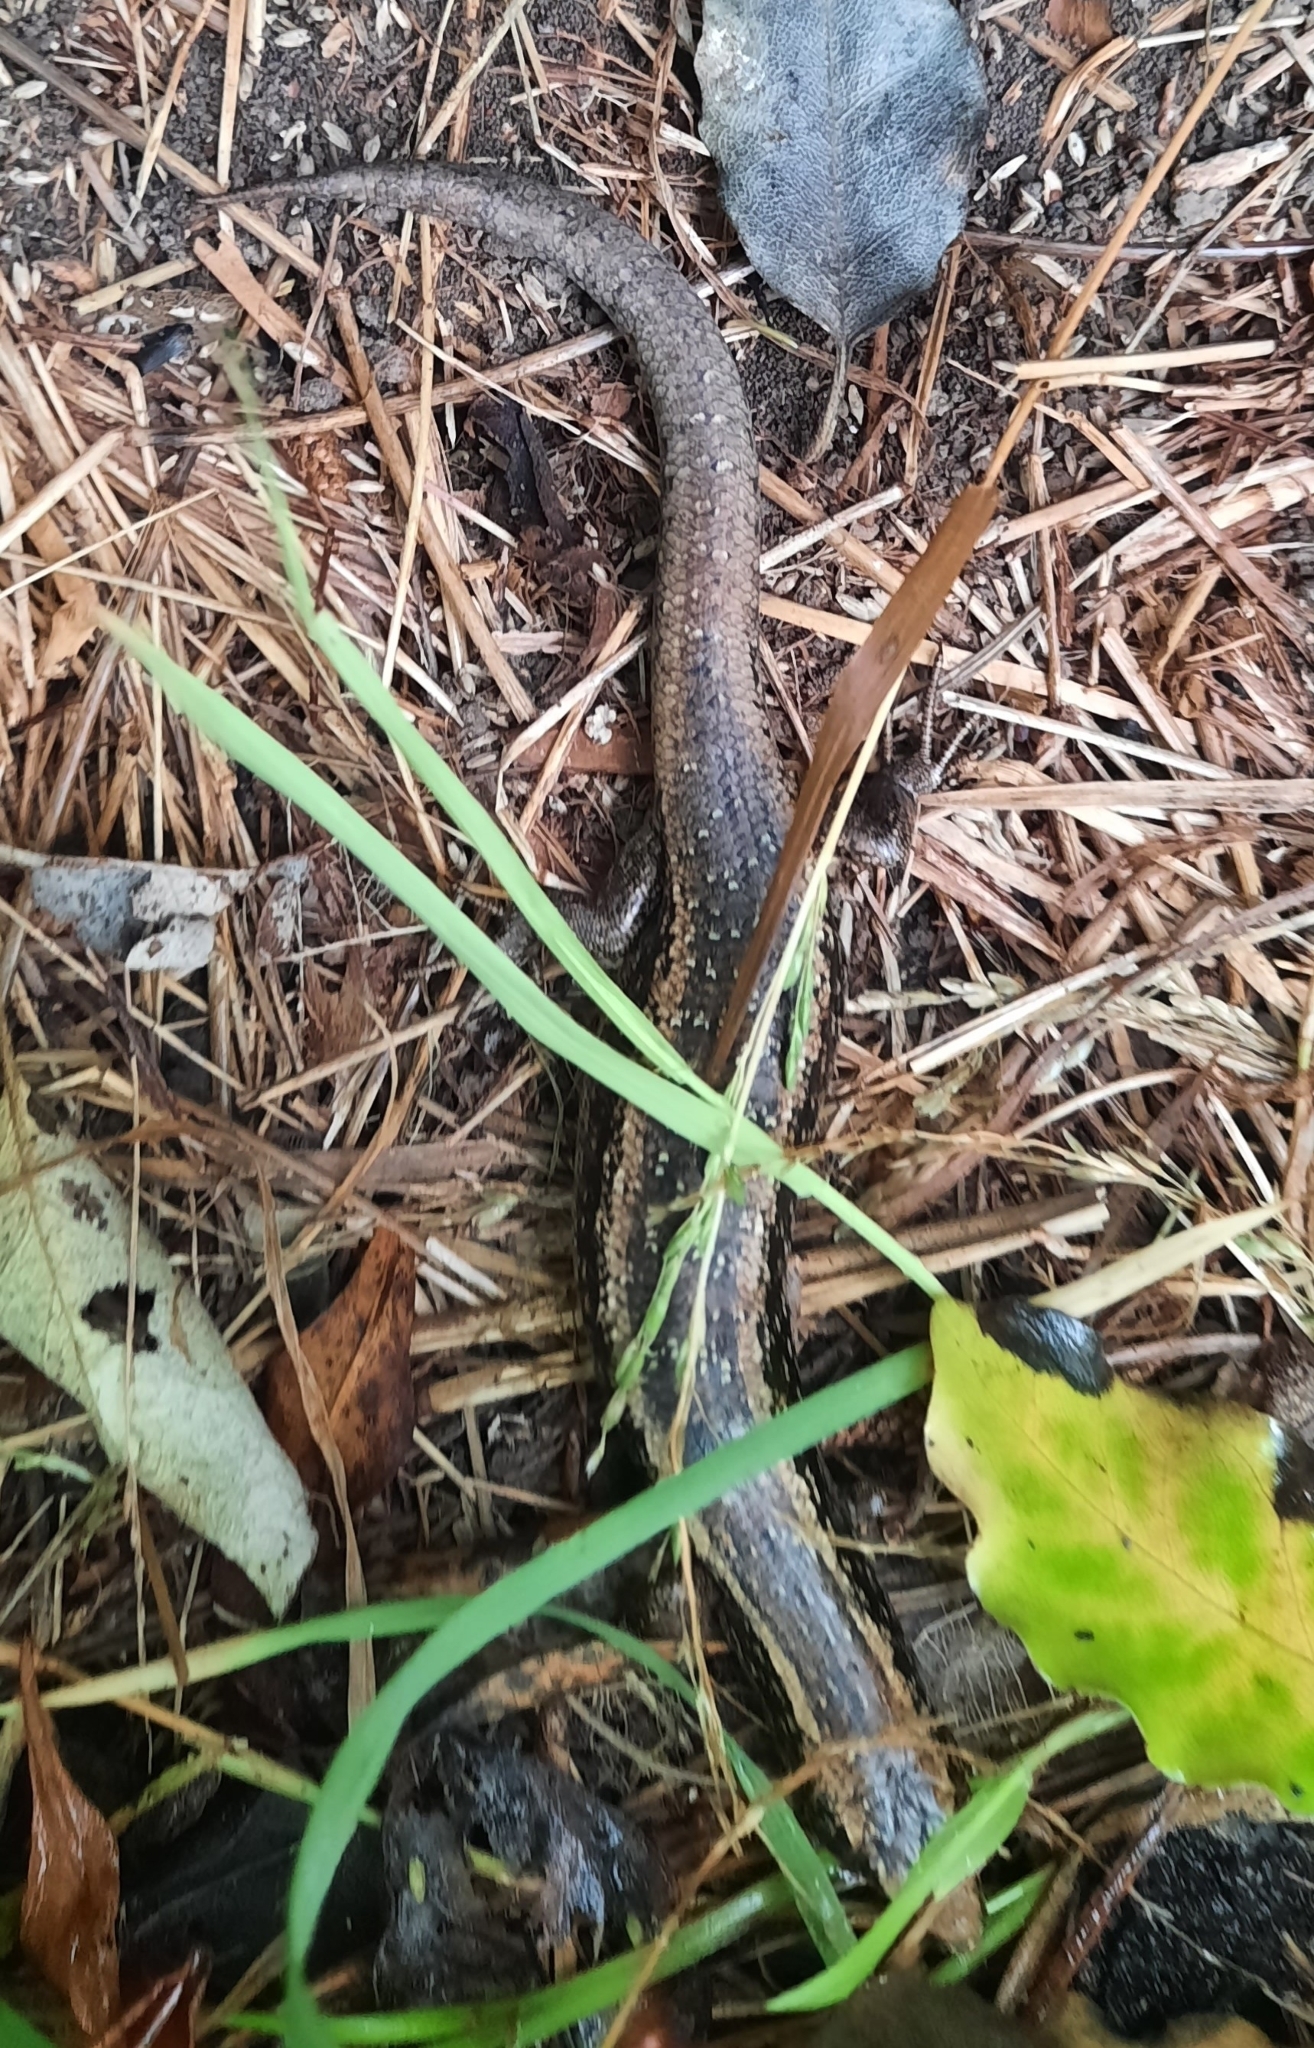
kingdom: Animalia
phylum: Chordata
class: Squamata
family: Scincidae
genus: Oligosoma
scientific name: Oligosoma kokowai
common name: Northern spotted skink
